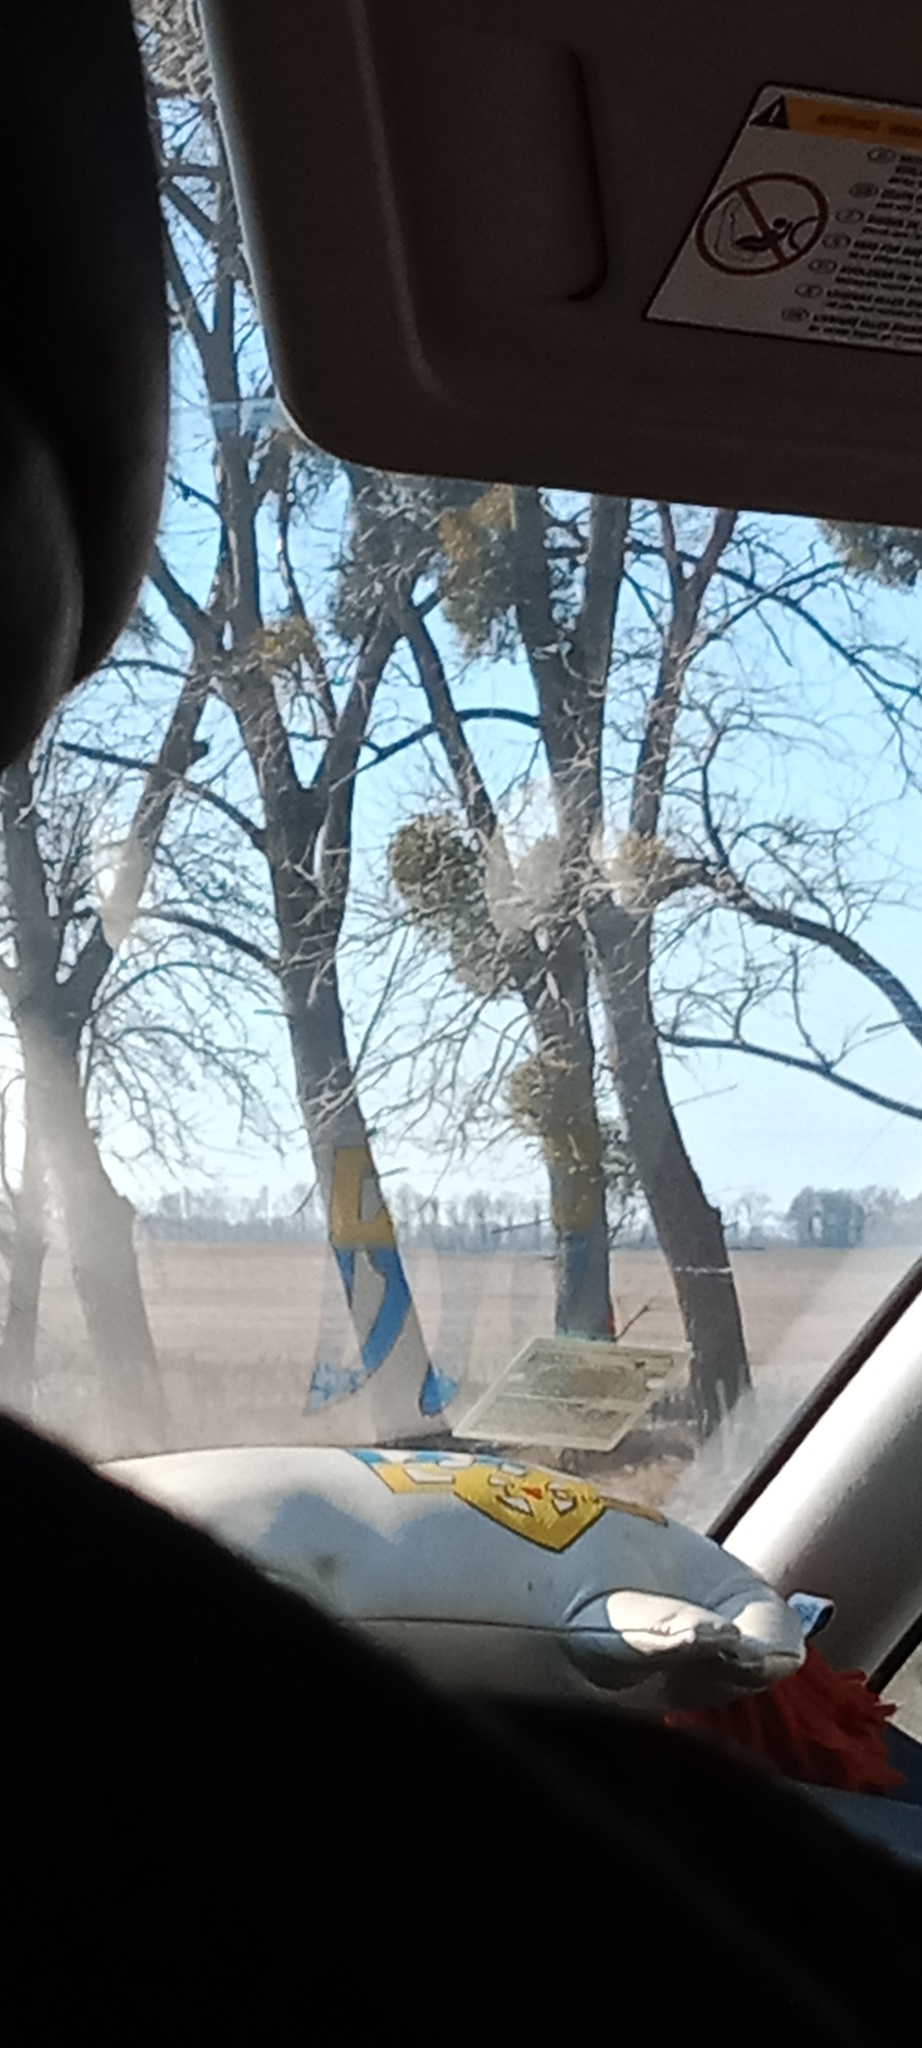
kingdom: Plantae
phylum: Tracheophyta
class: Magnoliopsida
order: Santalales
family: Viscaceae
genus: Viscum
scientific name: Viscum album
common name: Mistletoe
